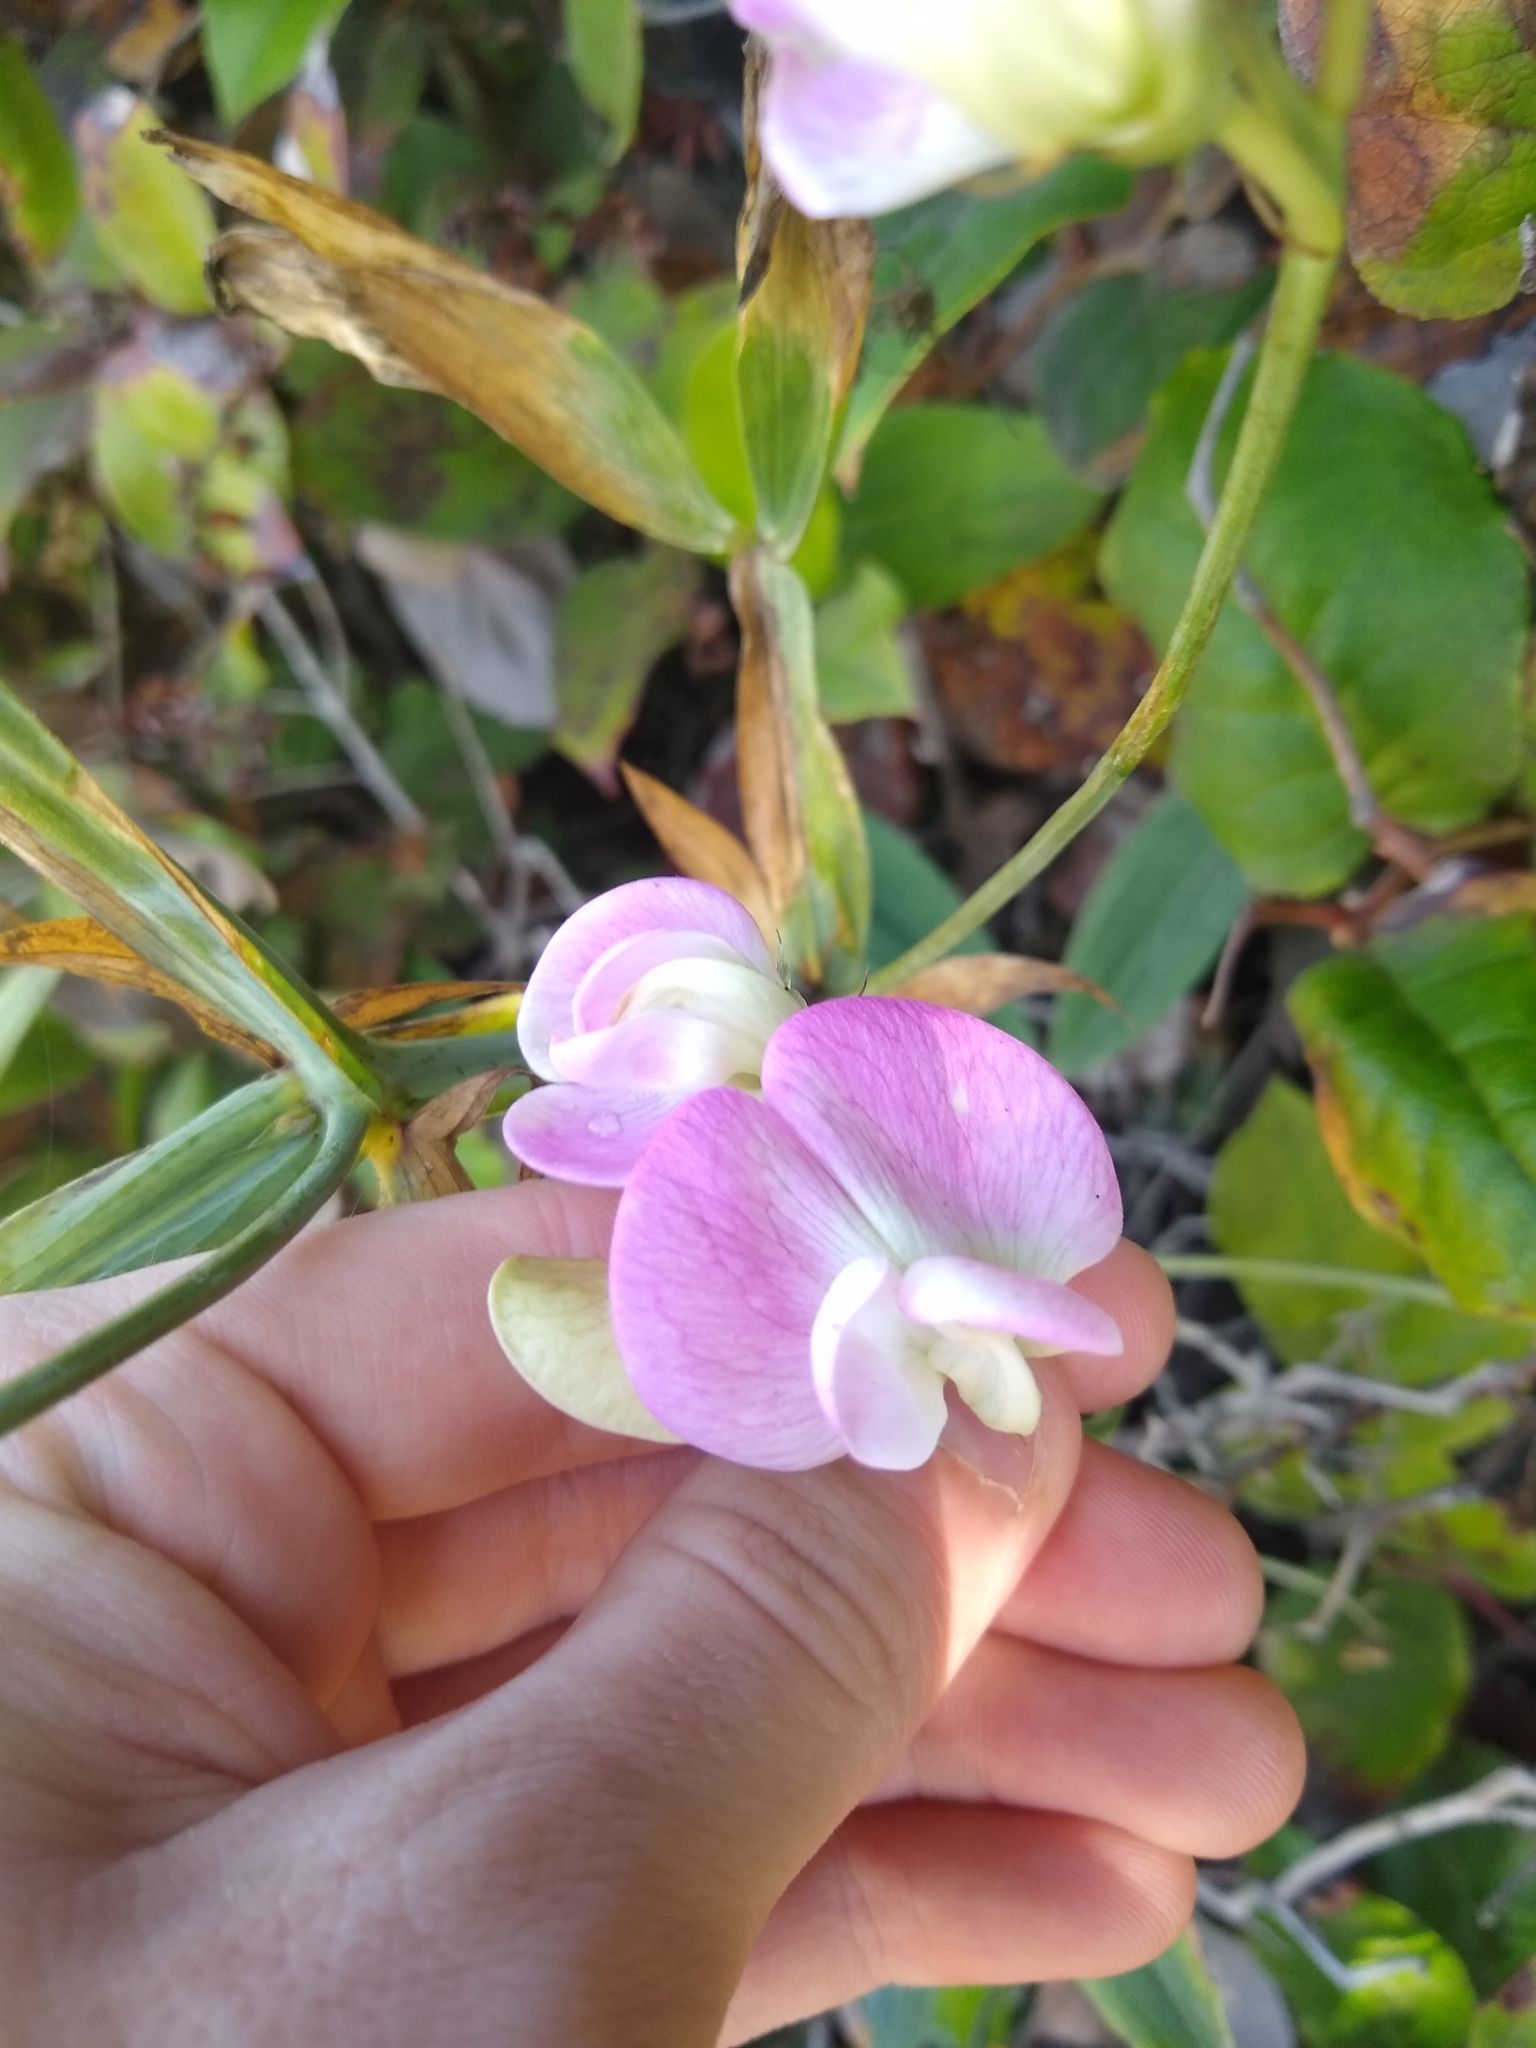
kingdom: Plantae
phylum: Tracheophyta
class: Magnoliopsida
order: Fabales
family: Fabaceae
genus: Lathyrus
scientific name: Lathyrus latifolius
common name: Perennial pea
